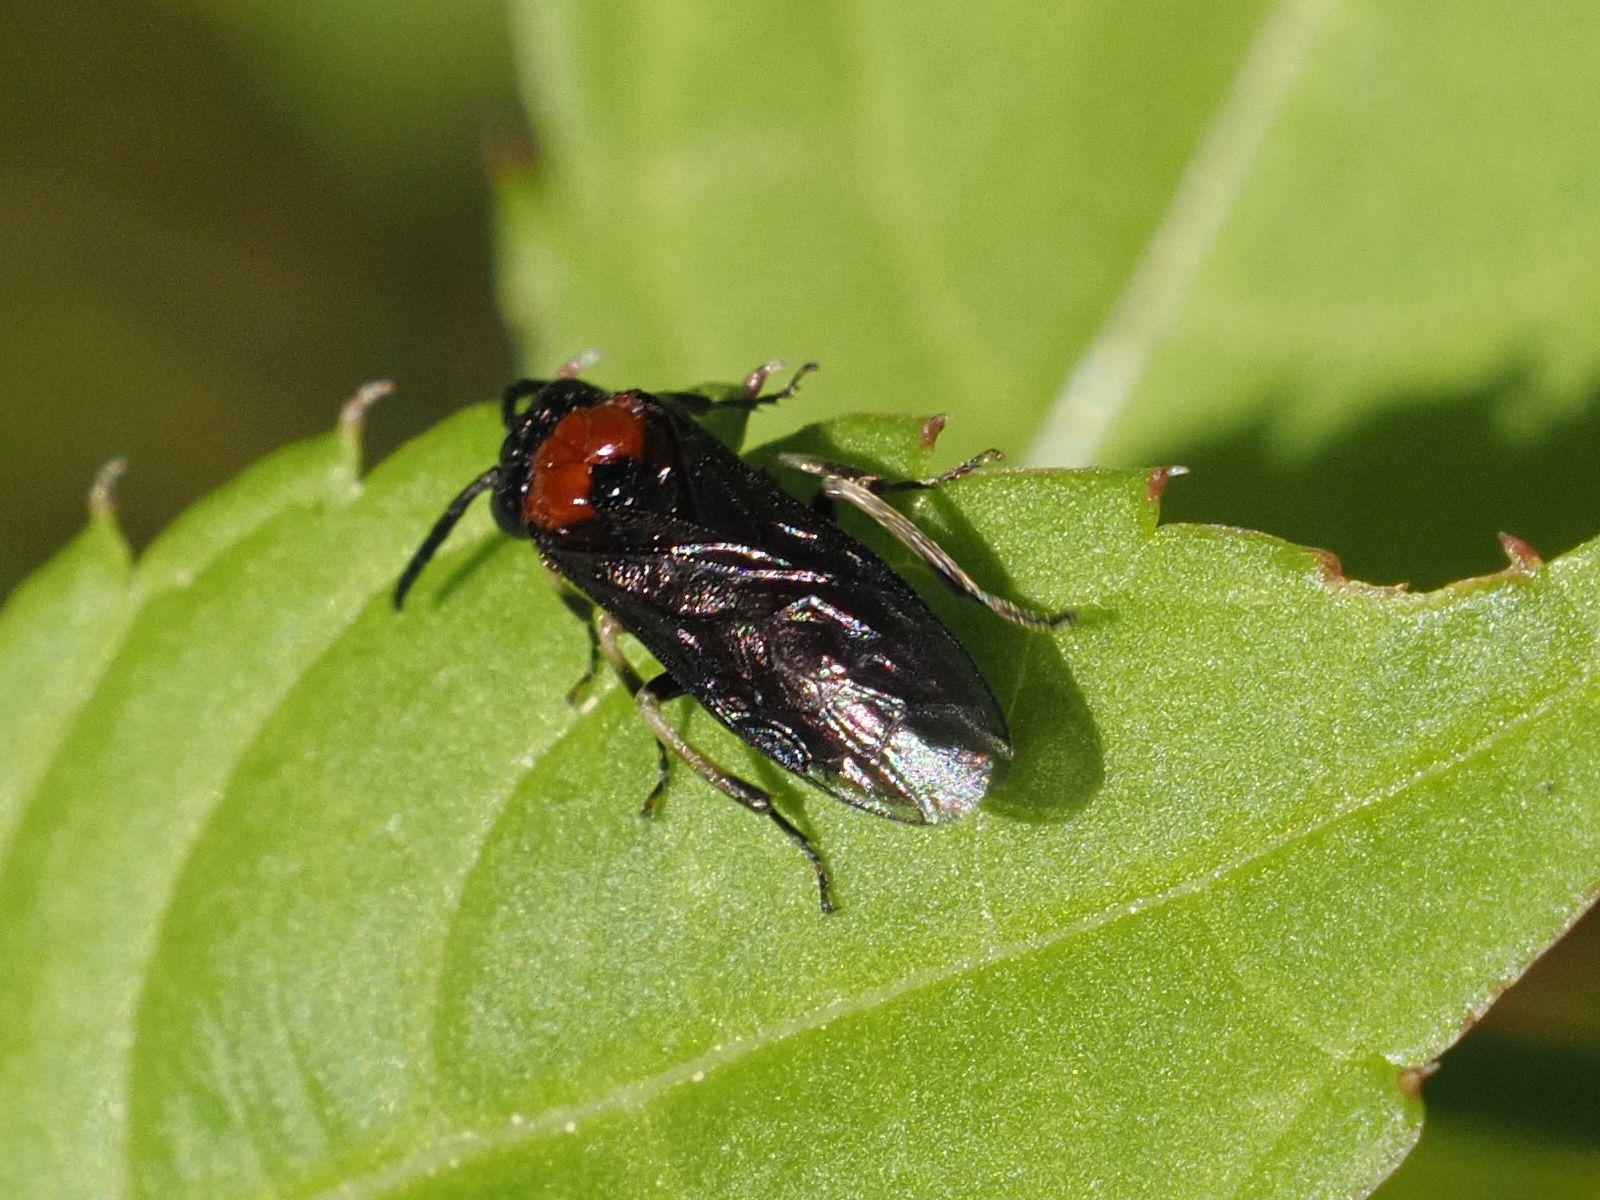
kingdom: Animalia
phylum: Arthropoda
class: Insecta
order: Hymenoptera
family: Tenthredinidae
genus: Eutomostethus
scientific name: Eutomostethus ephippium
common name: Tenthredid wasp
